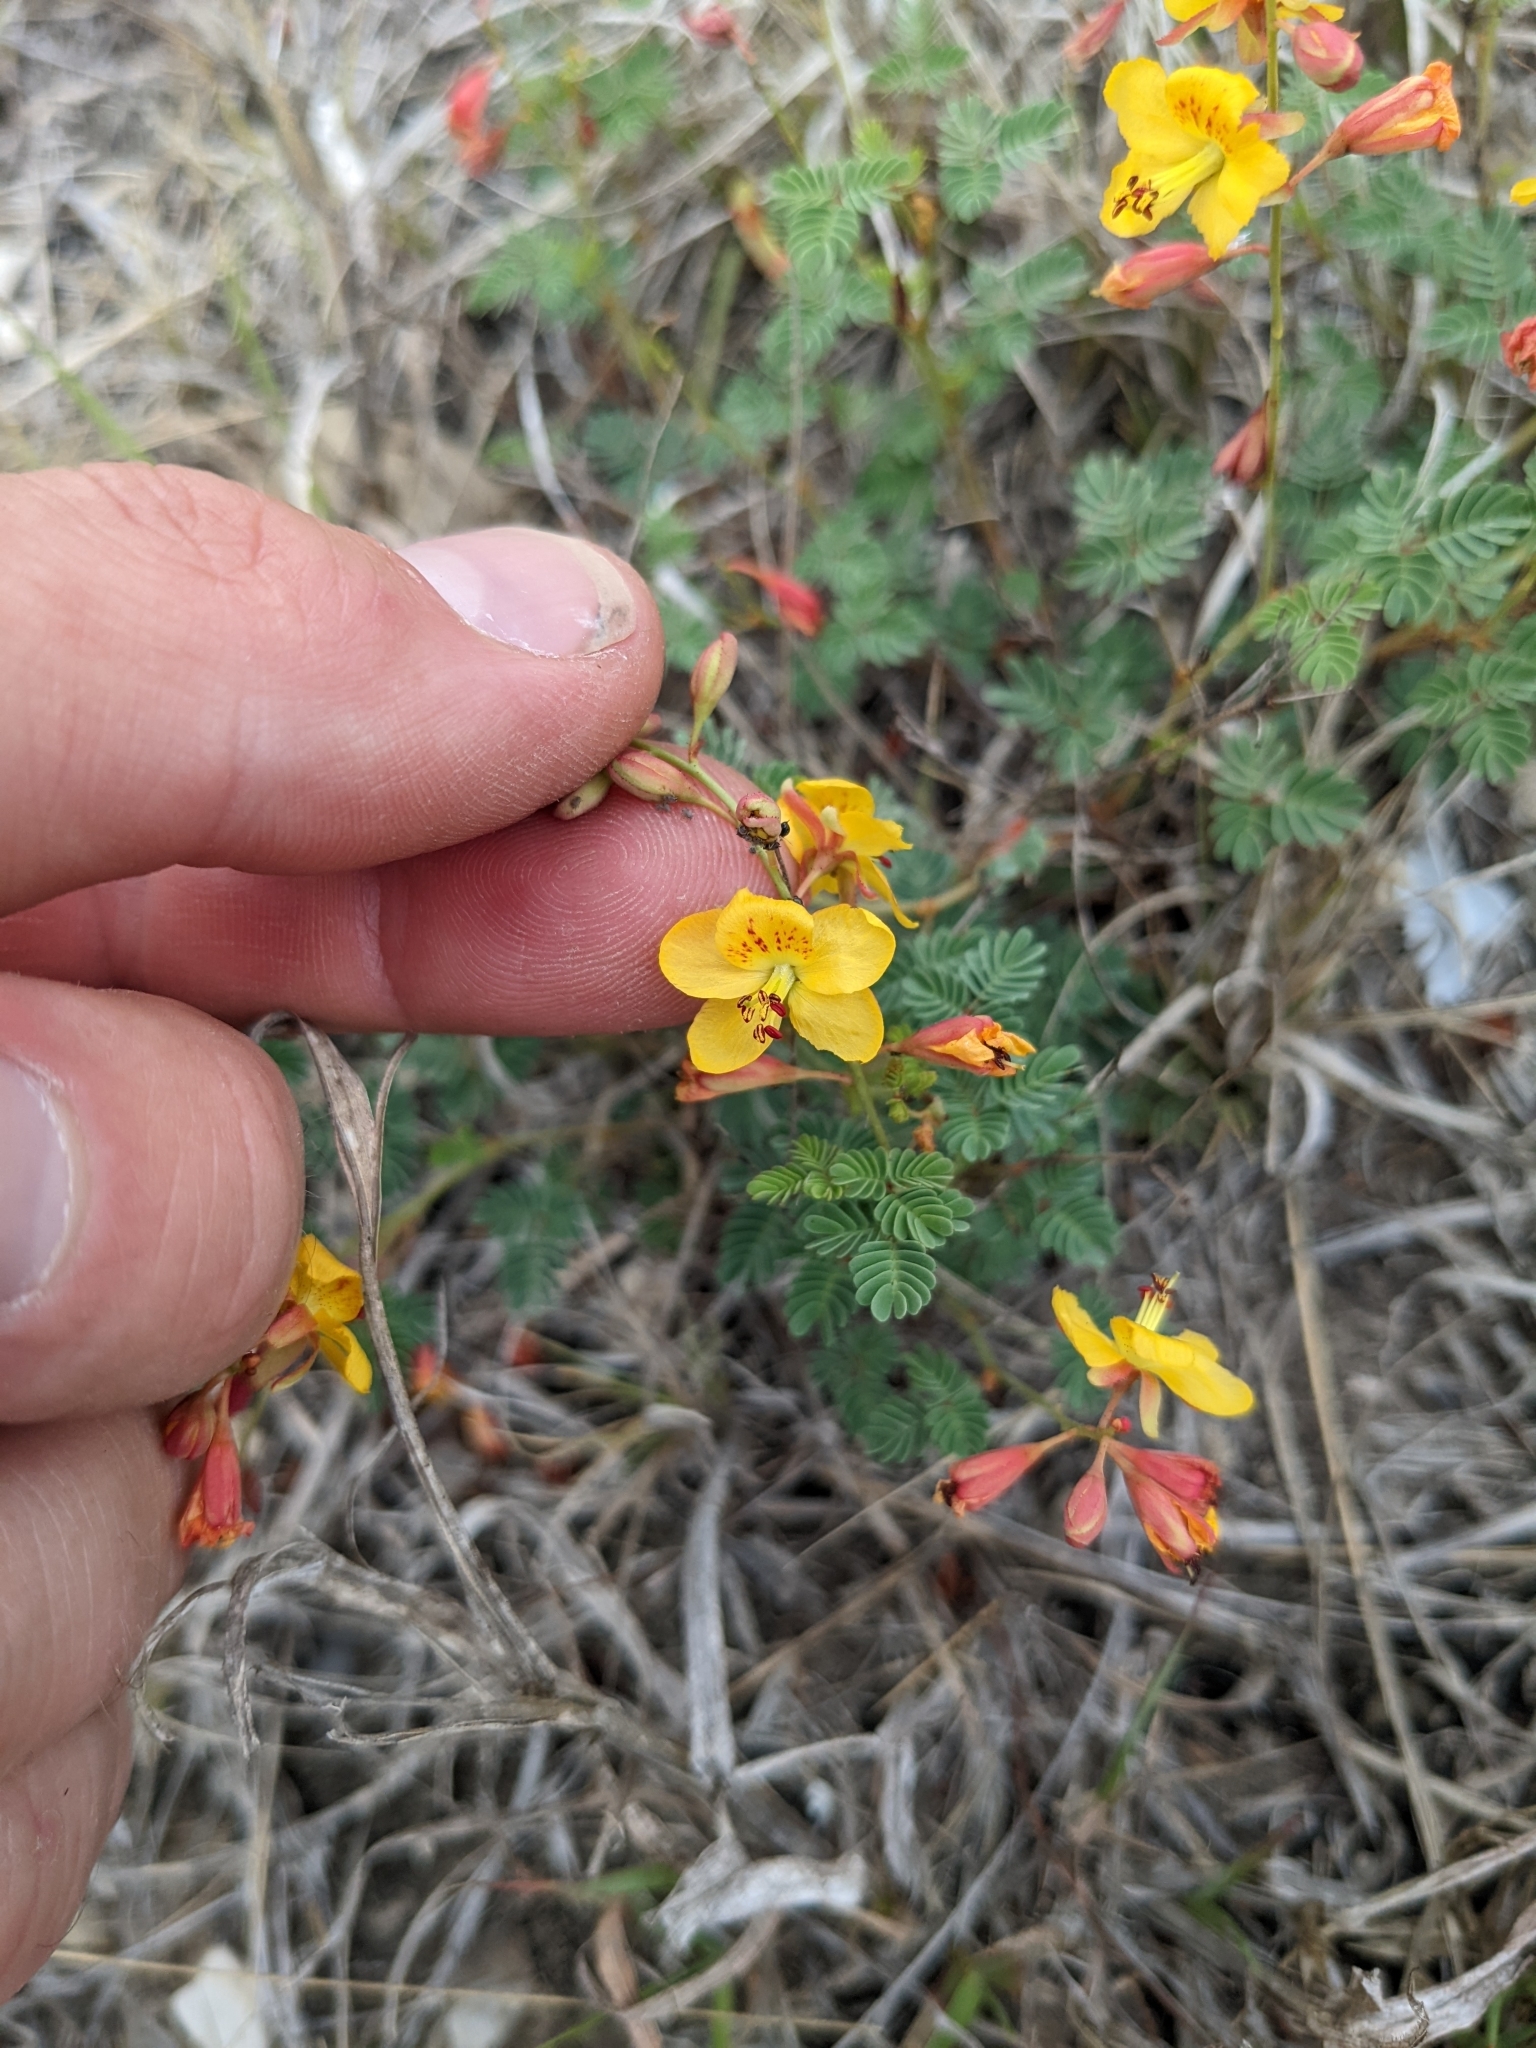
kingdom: Plantae
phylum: Tracheophyta
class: Magnoliopsida
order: Fabales
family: Fabaceae
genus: Hoffmannseggia
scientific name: Hoffmannseggia drummondii
